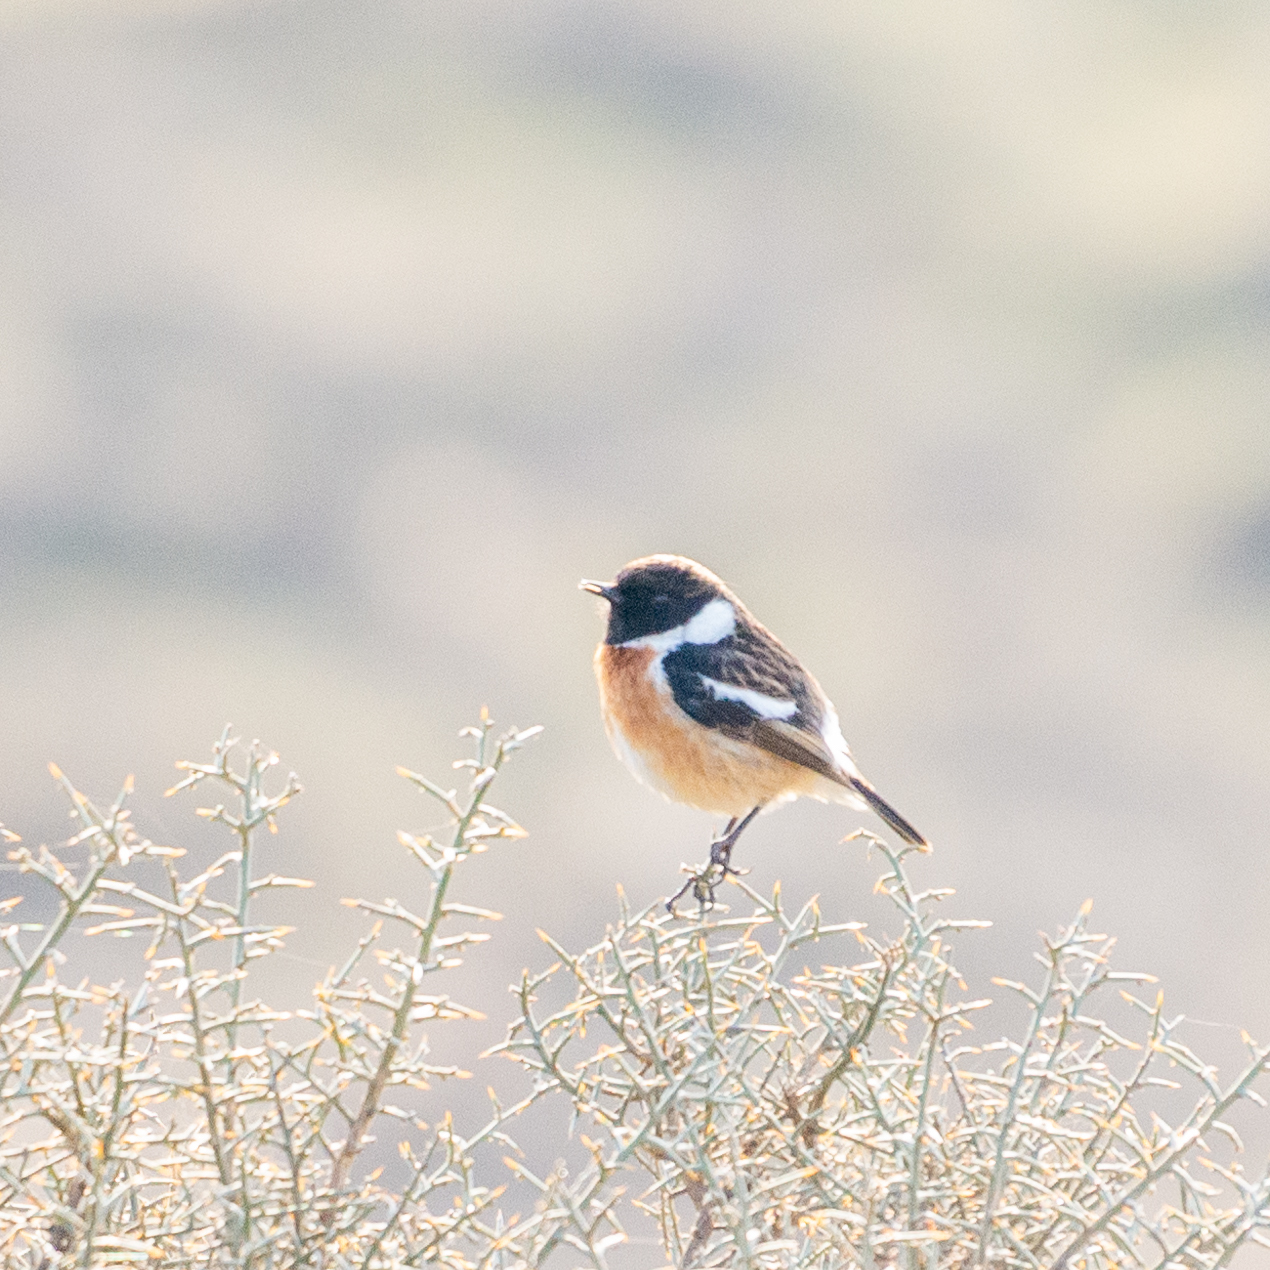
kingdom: Animalia
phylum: Chordata
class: Aves
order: Passeriformes
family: Muscicapidae
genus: Saxicola
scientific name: Saxicola rubicola
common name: European stonechat
